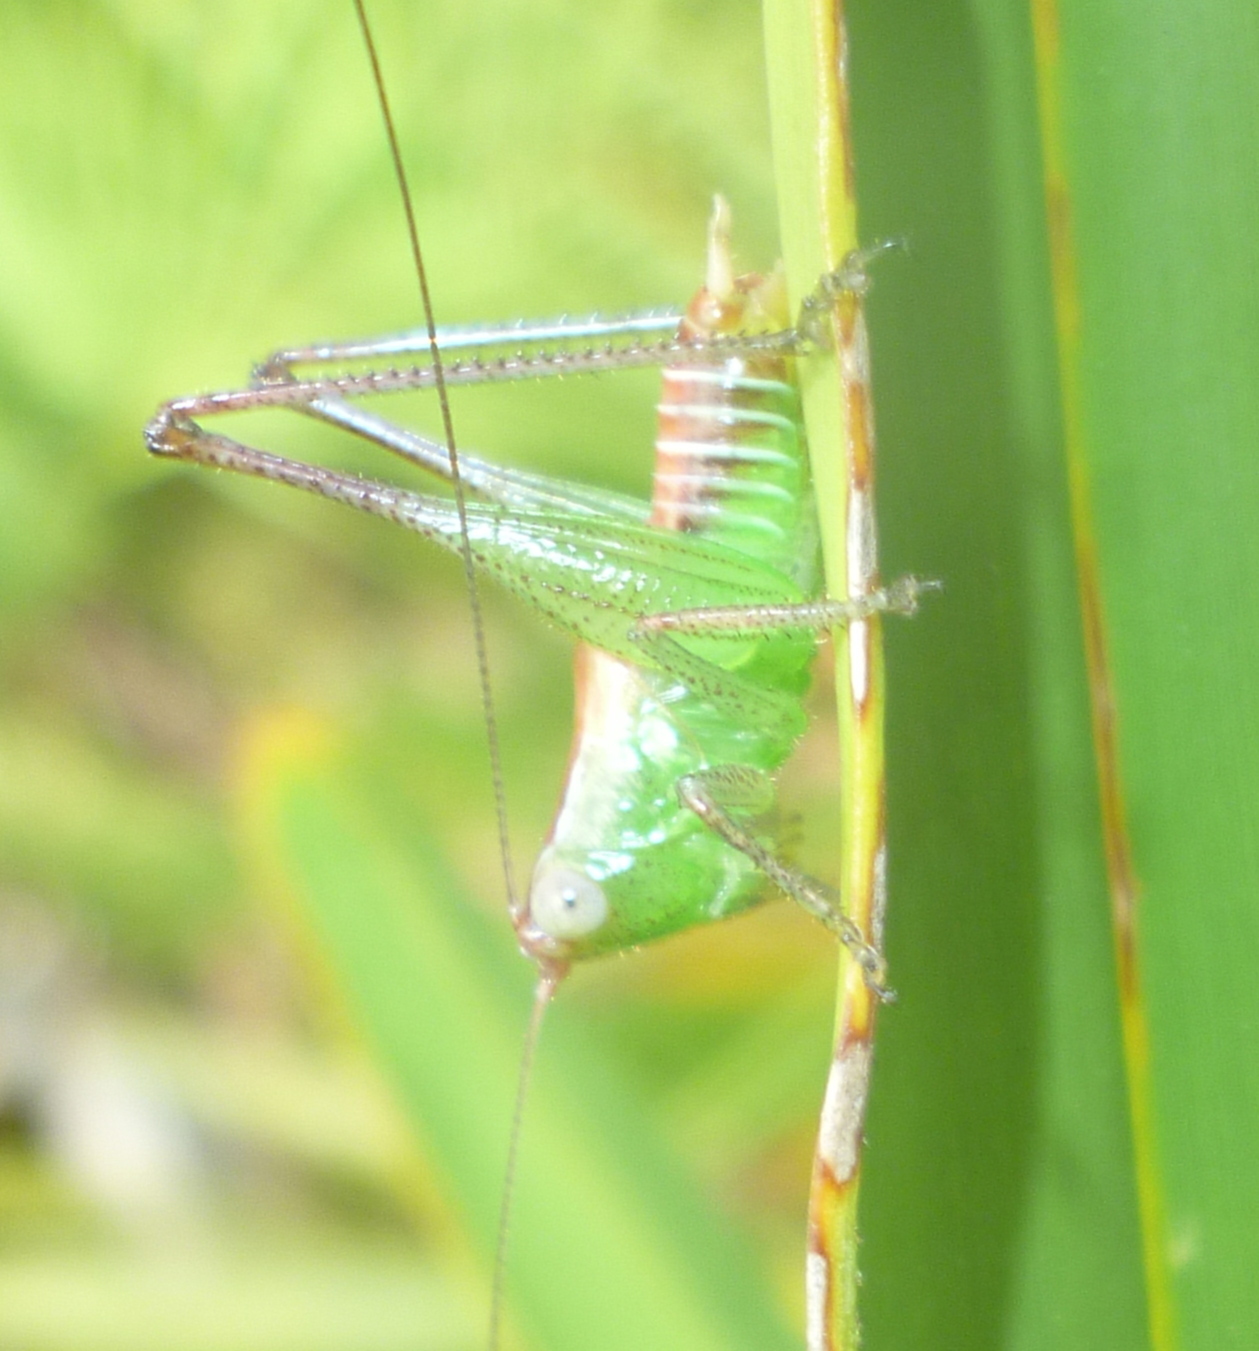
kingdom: Animalia
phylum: Arthropoda
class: Insecta
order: Orthoptera
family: Tettigoniidae
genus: Odontoxiphidium
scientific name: Odontoxiphidium apterum
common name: Wingless meadow katydid
